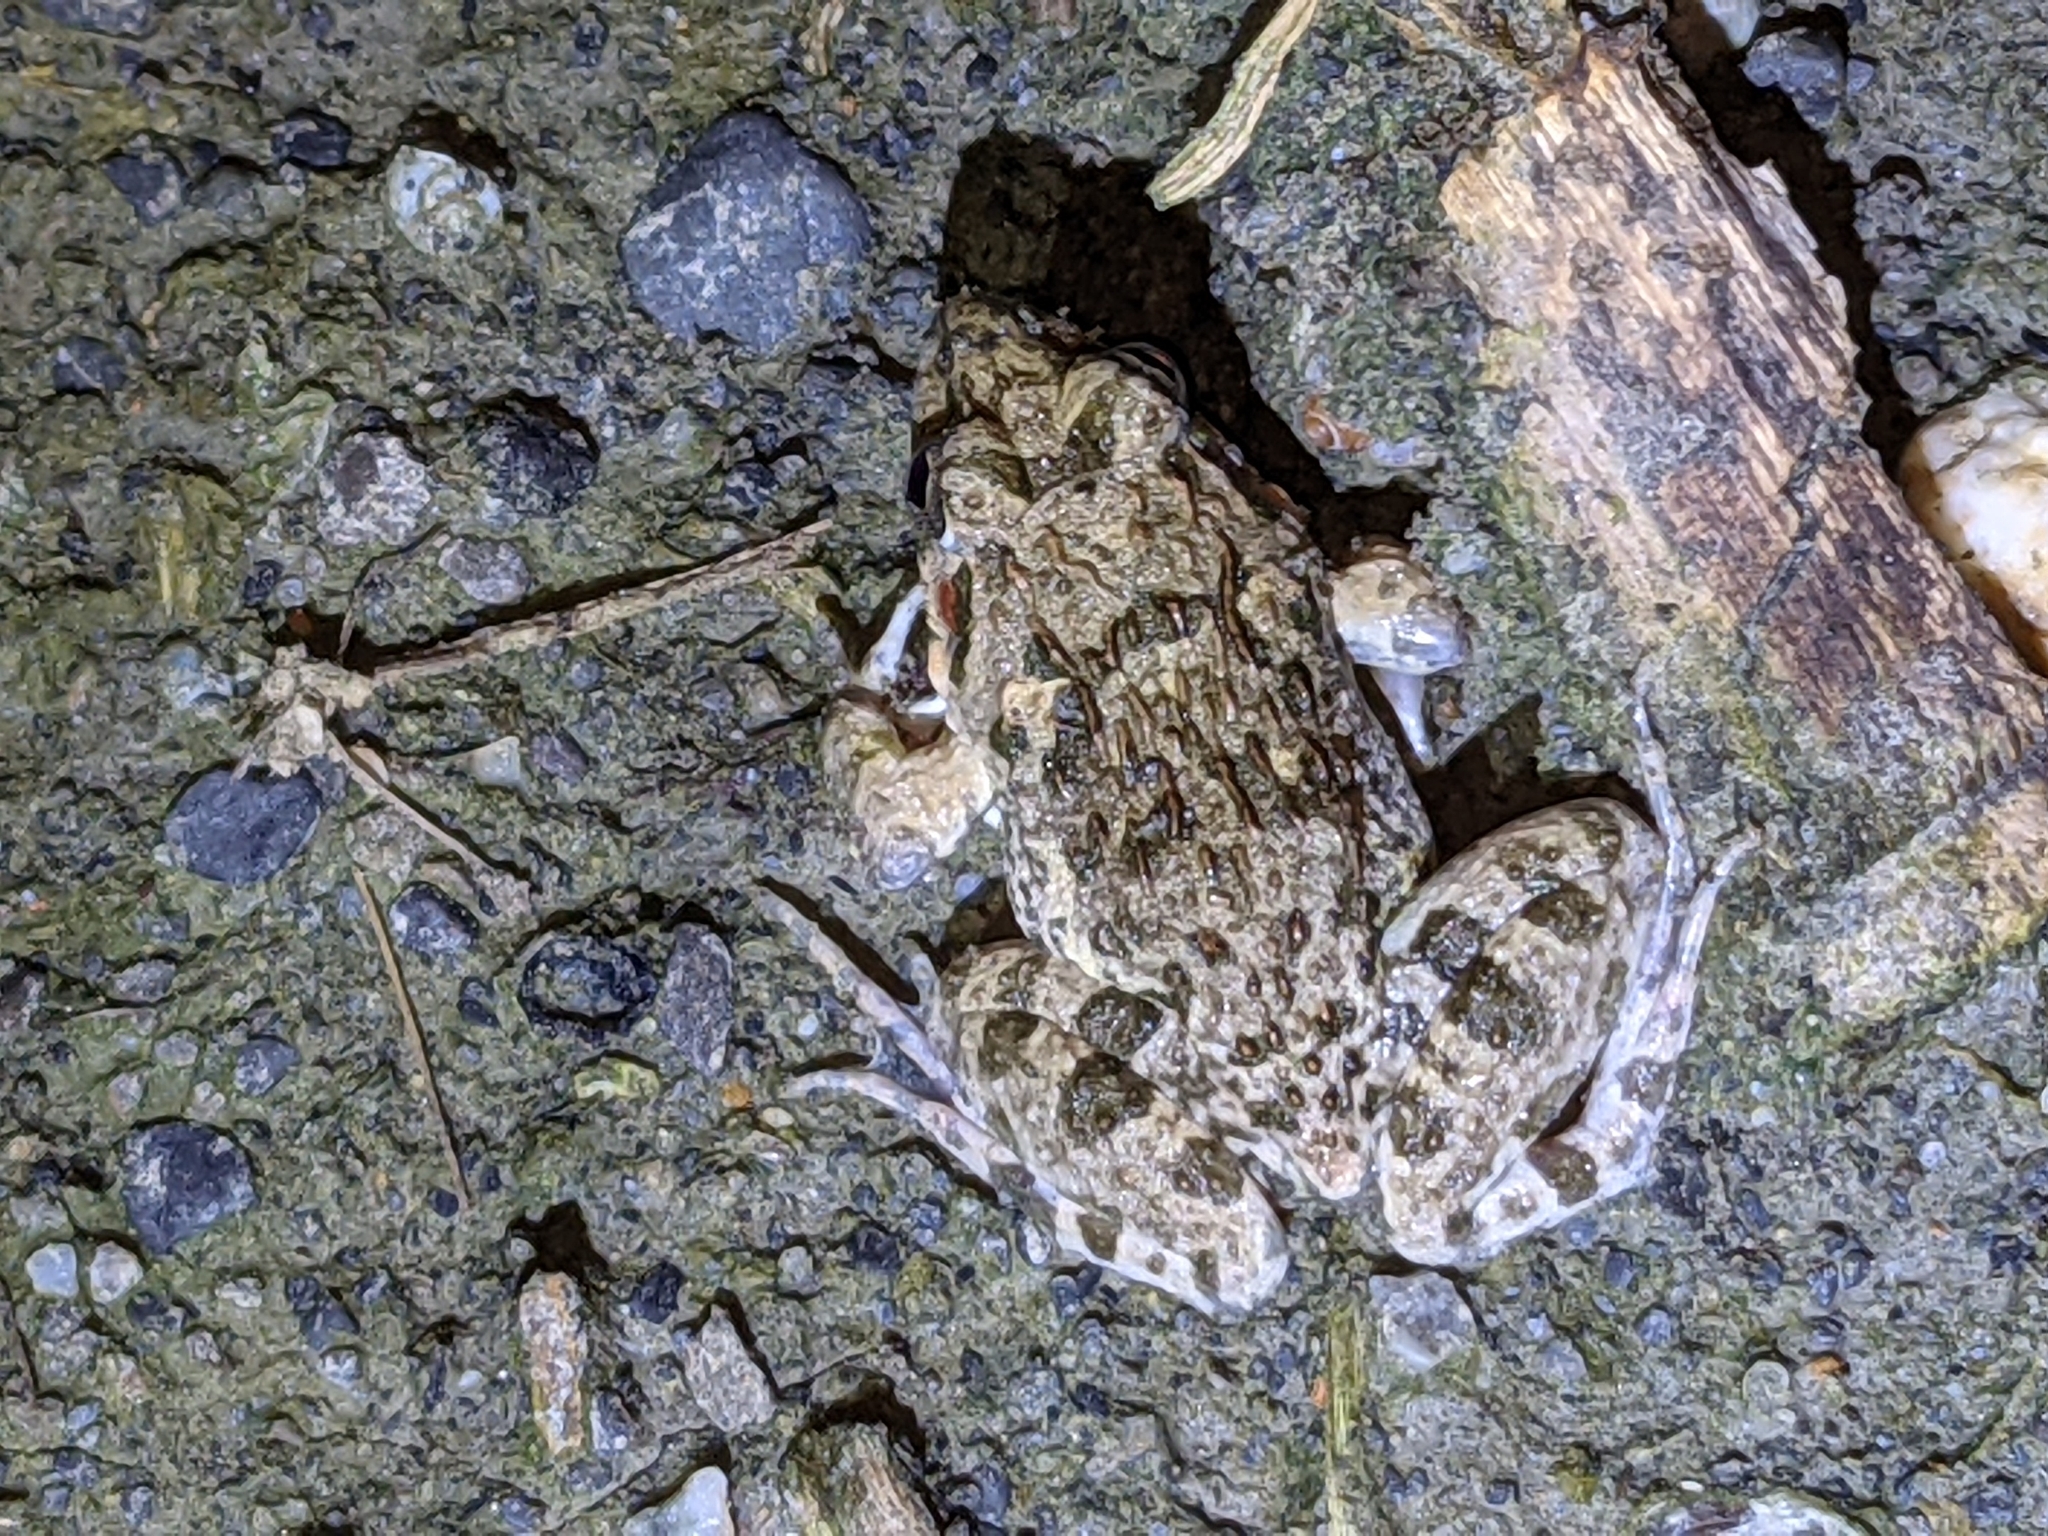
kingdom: Animalia
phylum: Chordata
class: Amphibia
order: Anura
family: Dicroglossidae
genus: Fejervarya
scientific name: Fejervarya limnocharis
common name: Asian grass frog/common pond frog/field frog/grass frog/indian rice frog
